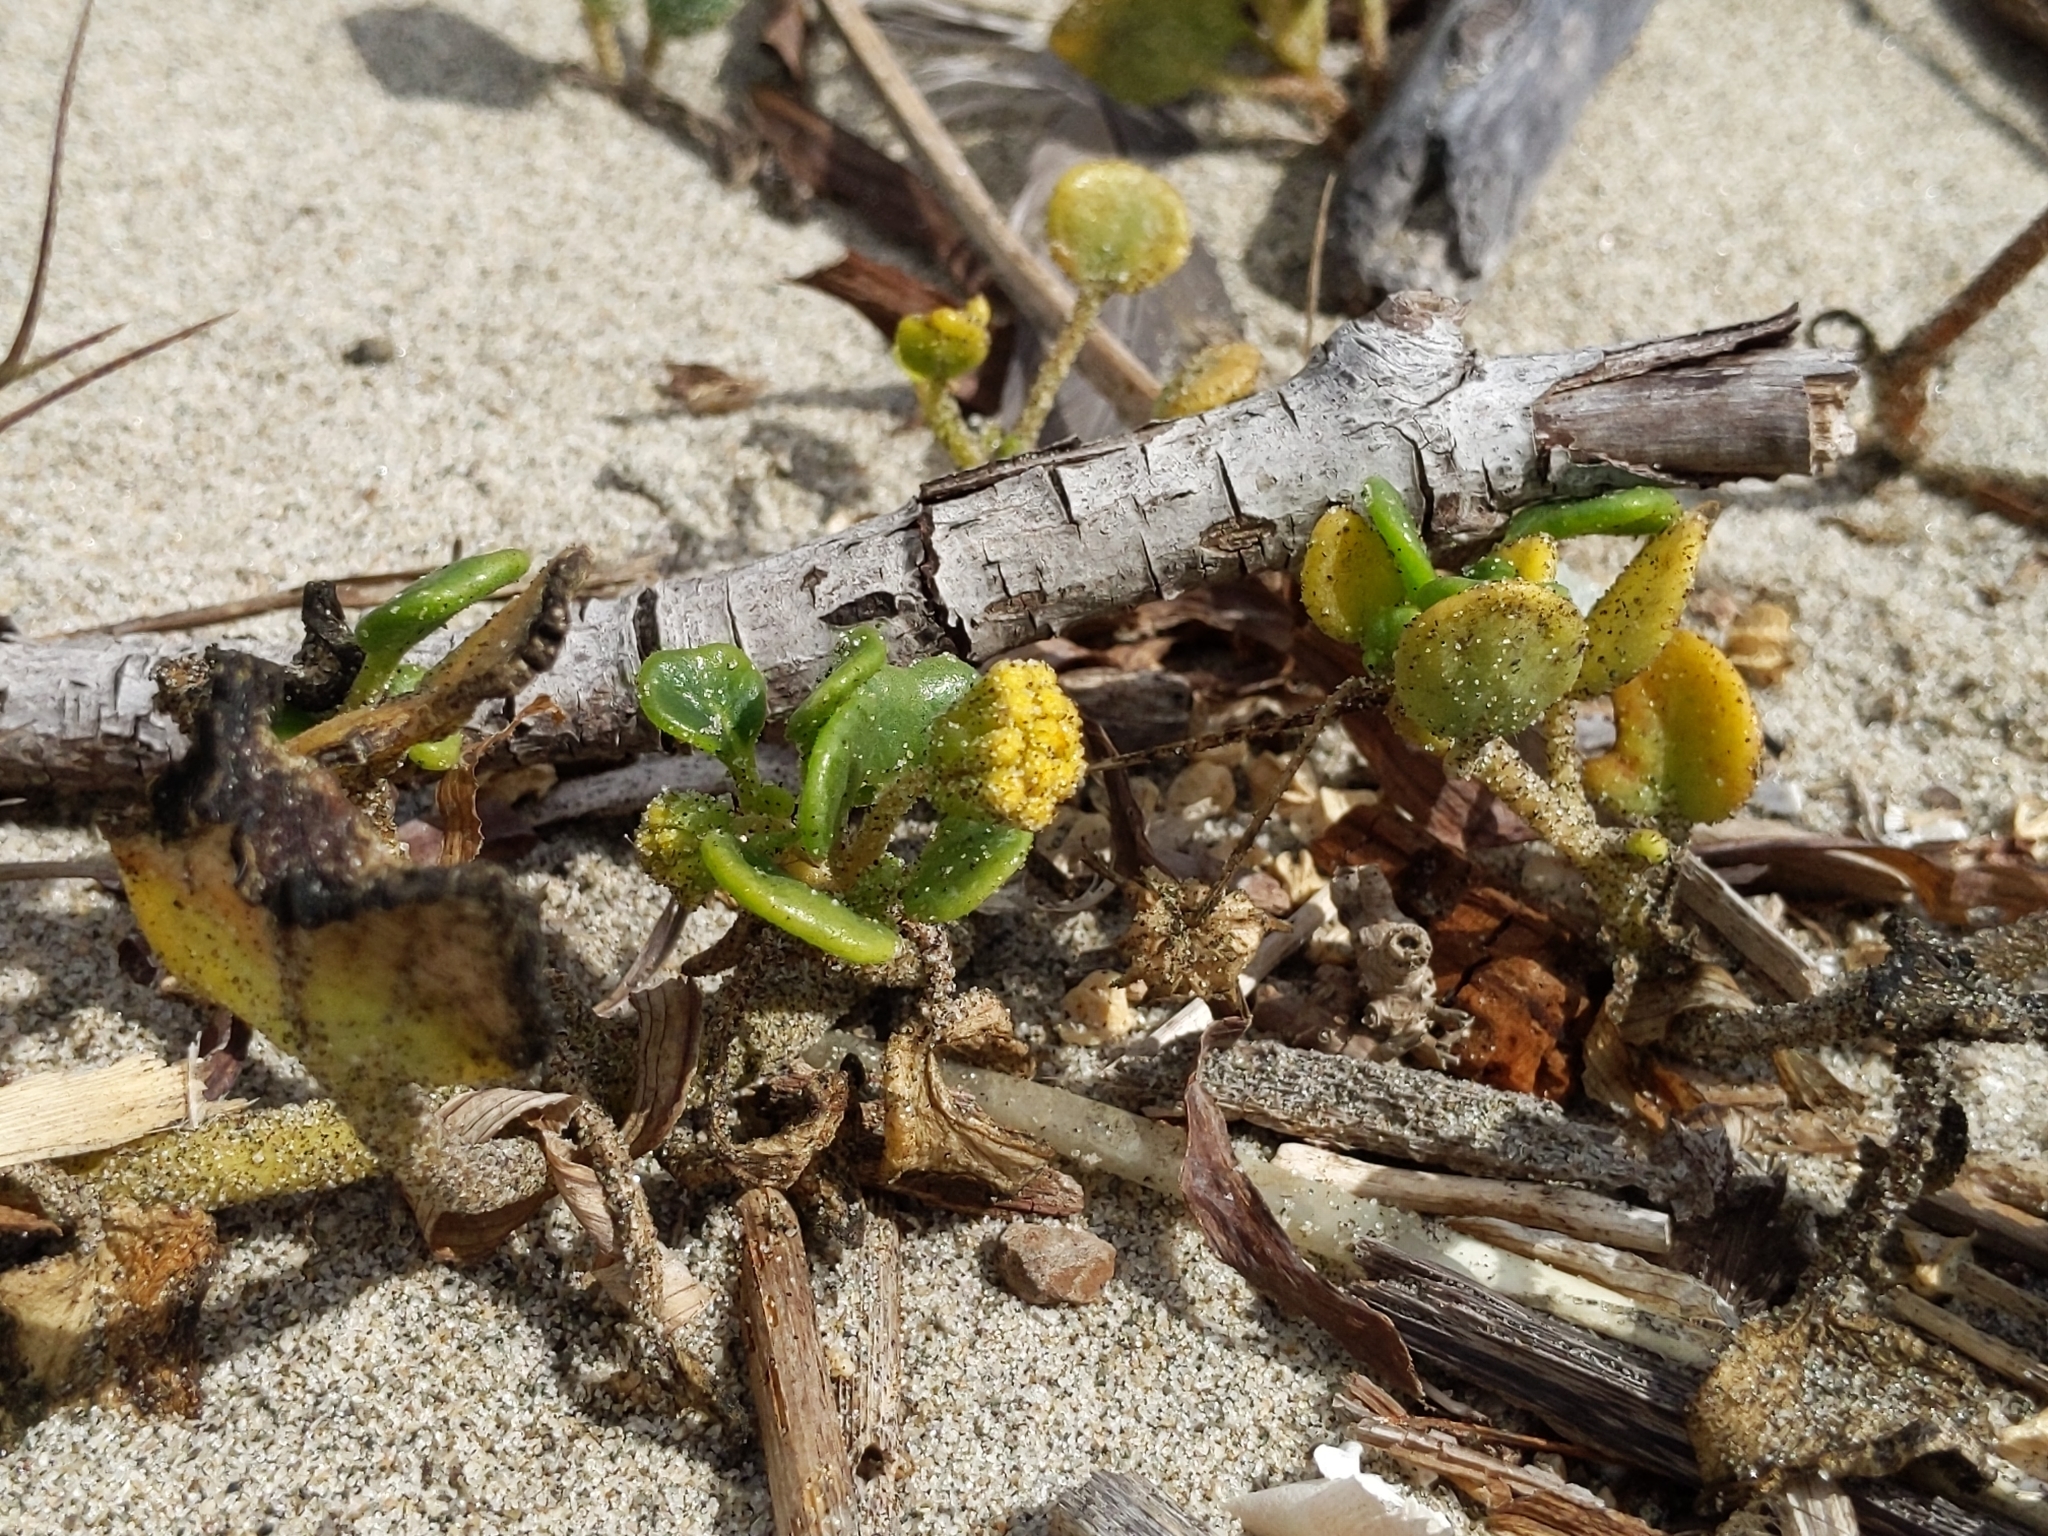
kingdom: Plantae
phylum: Tracheophyta
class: Magnoliopsida
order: Caryophyllales
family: Nyctaginaceae
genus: Abronia
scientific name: Abronia latifolia
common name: Yellow sand-verbena
